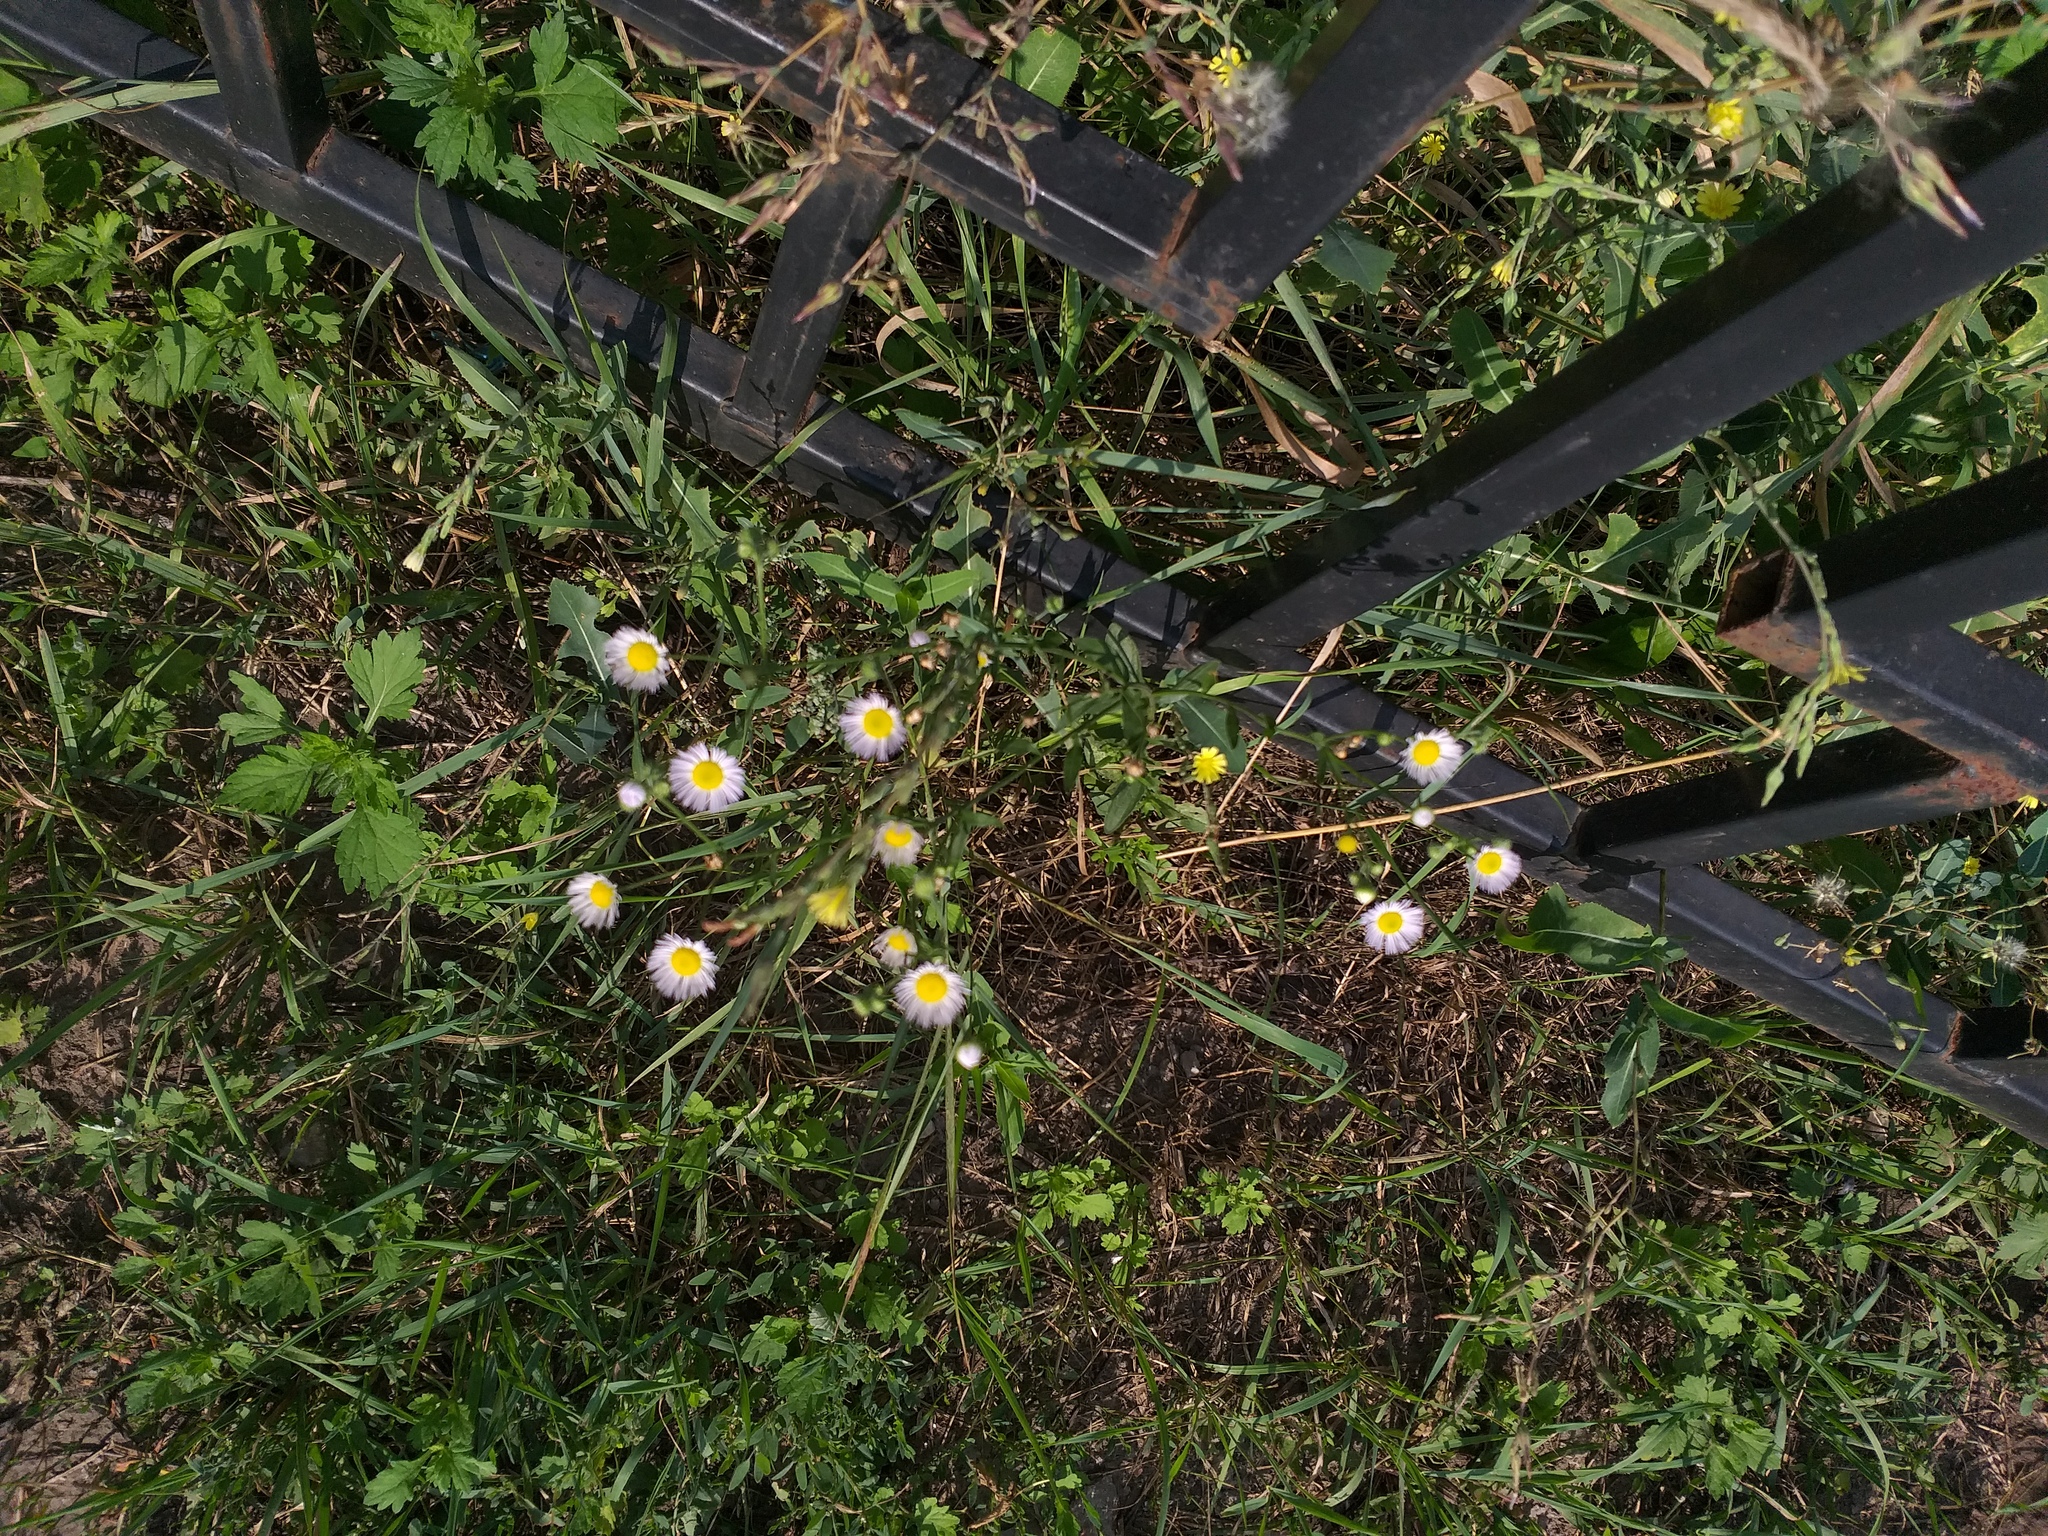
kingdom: Plantae
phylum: Tracheophyta
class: Magnoliopsida
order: Asterales
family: Asteraceae
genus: Erigeron
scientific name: Erigeron annuus
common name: Tall fleabane
